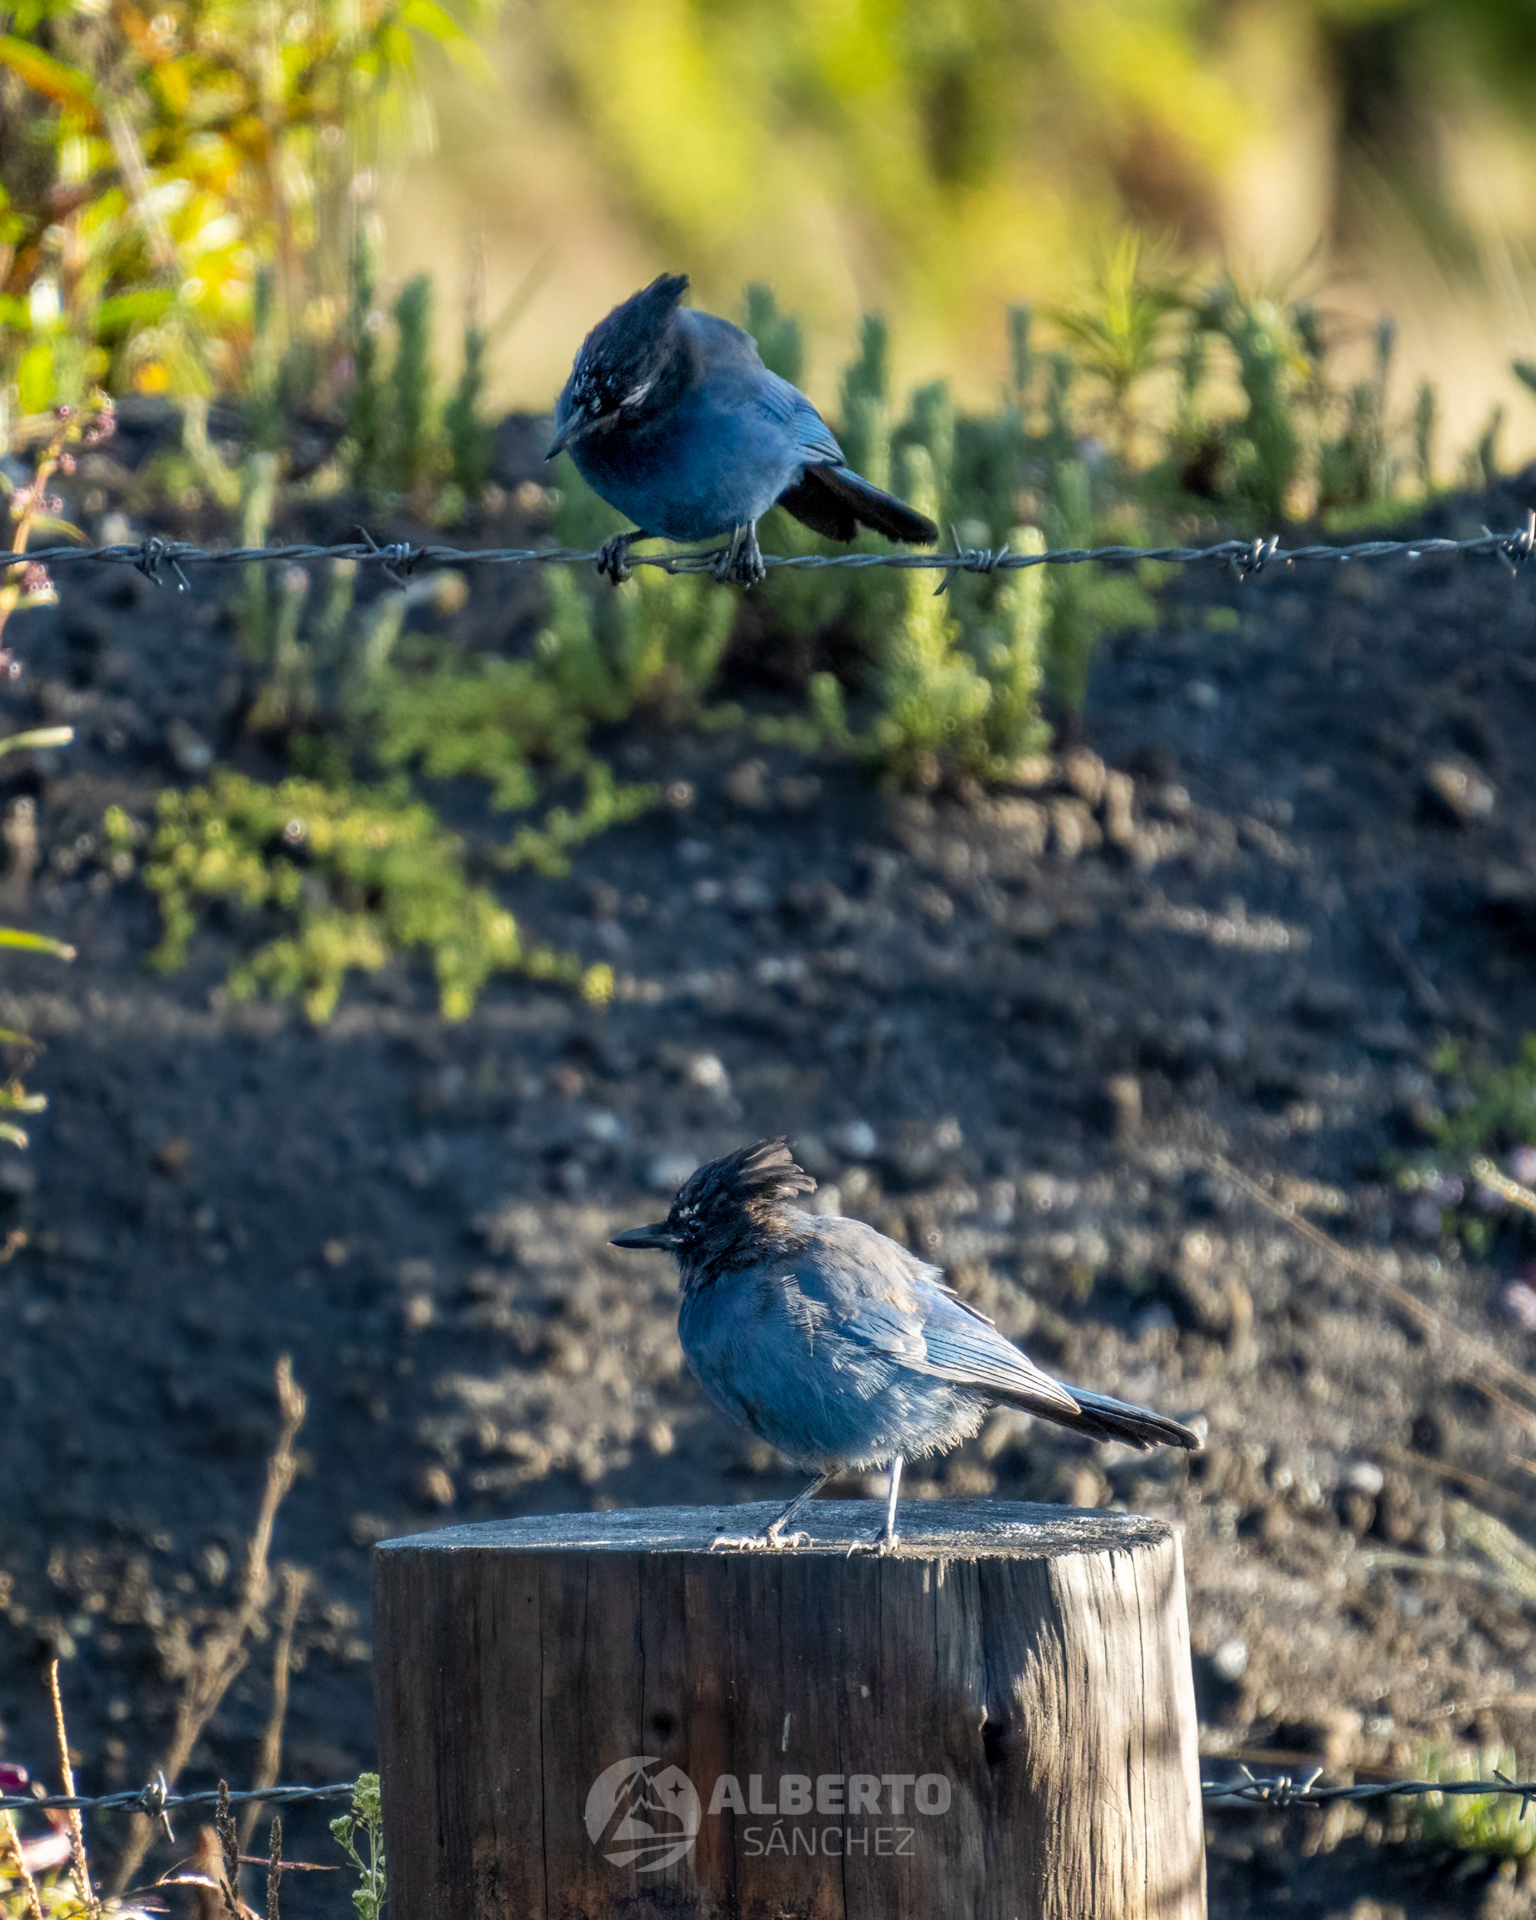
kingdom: Animalia
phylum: Chordata
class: Aves
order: Passeriformes
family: Corvidae
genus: Cyanocitta
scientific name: Cyanocitta stelleri
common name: Steller's jay
